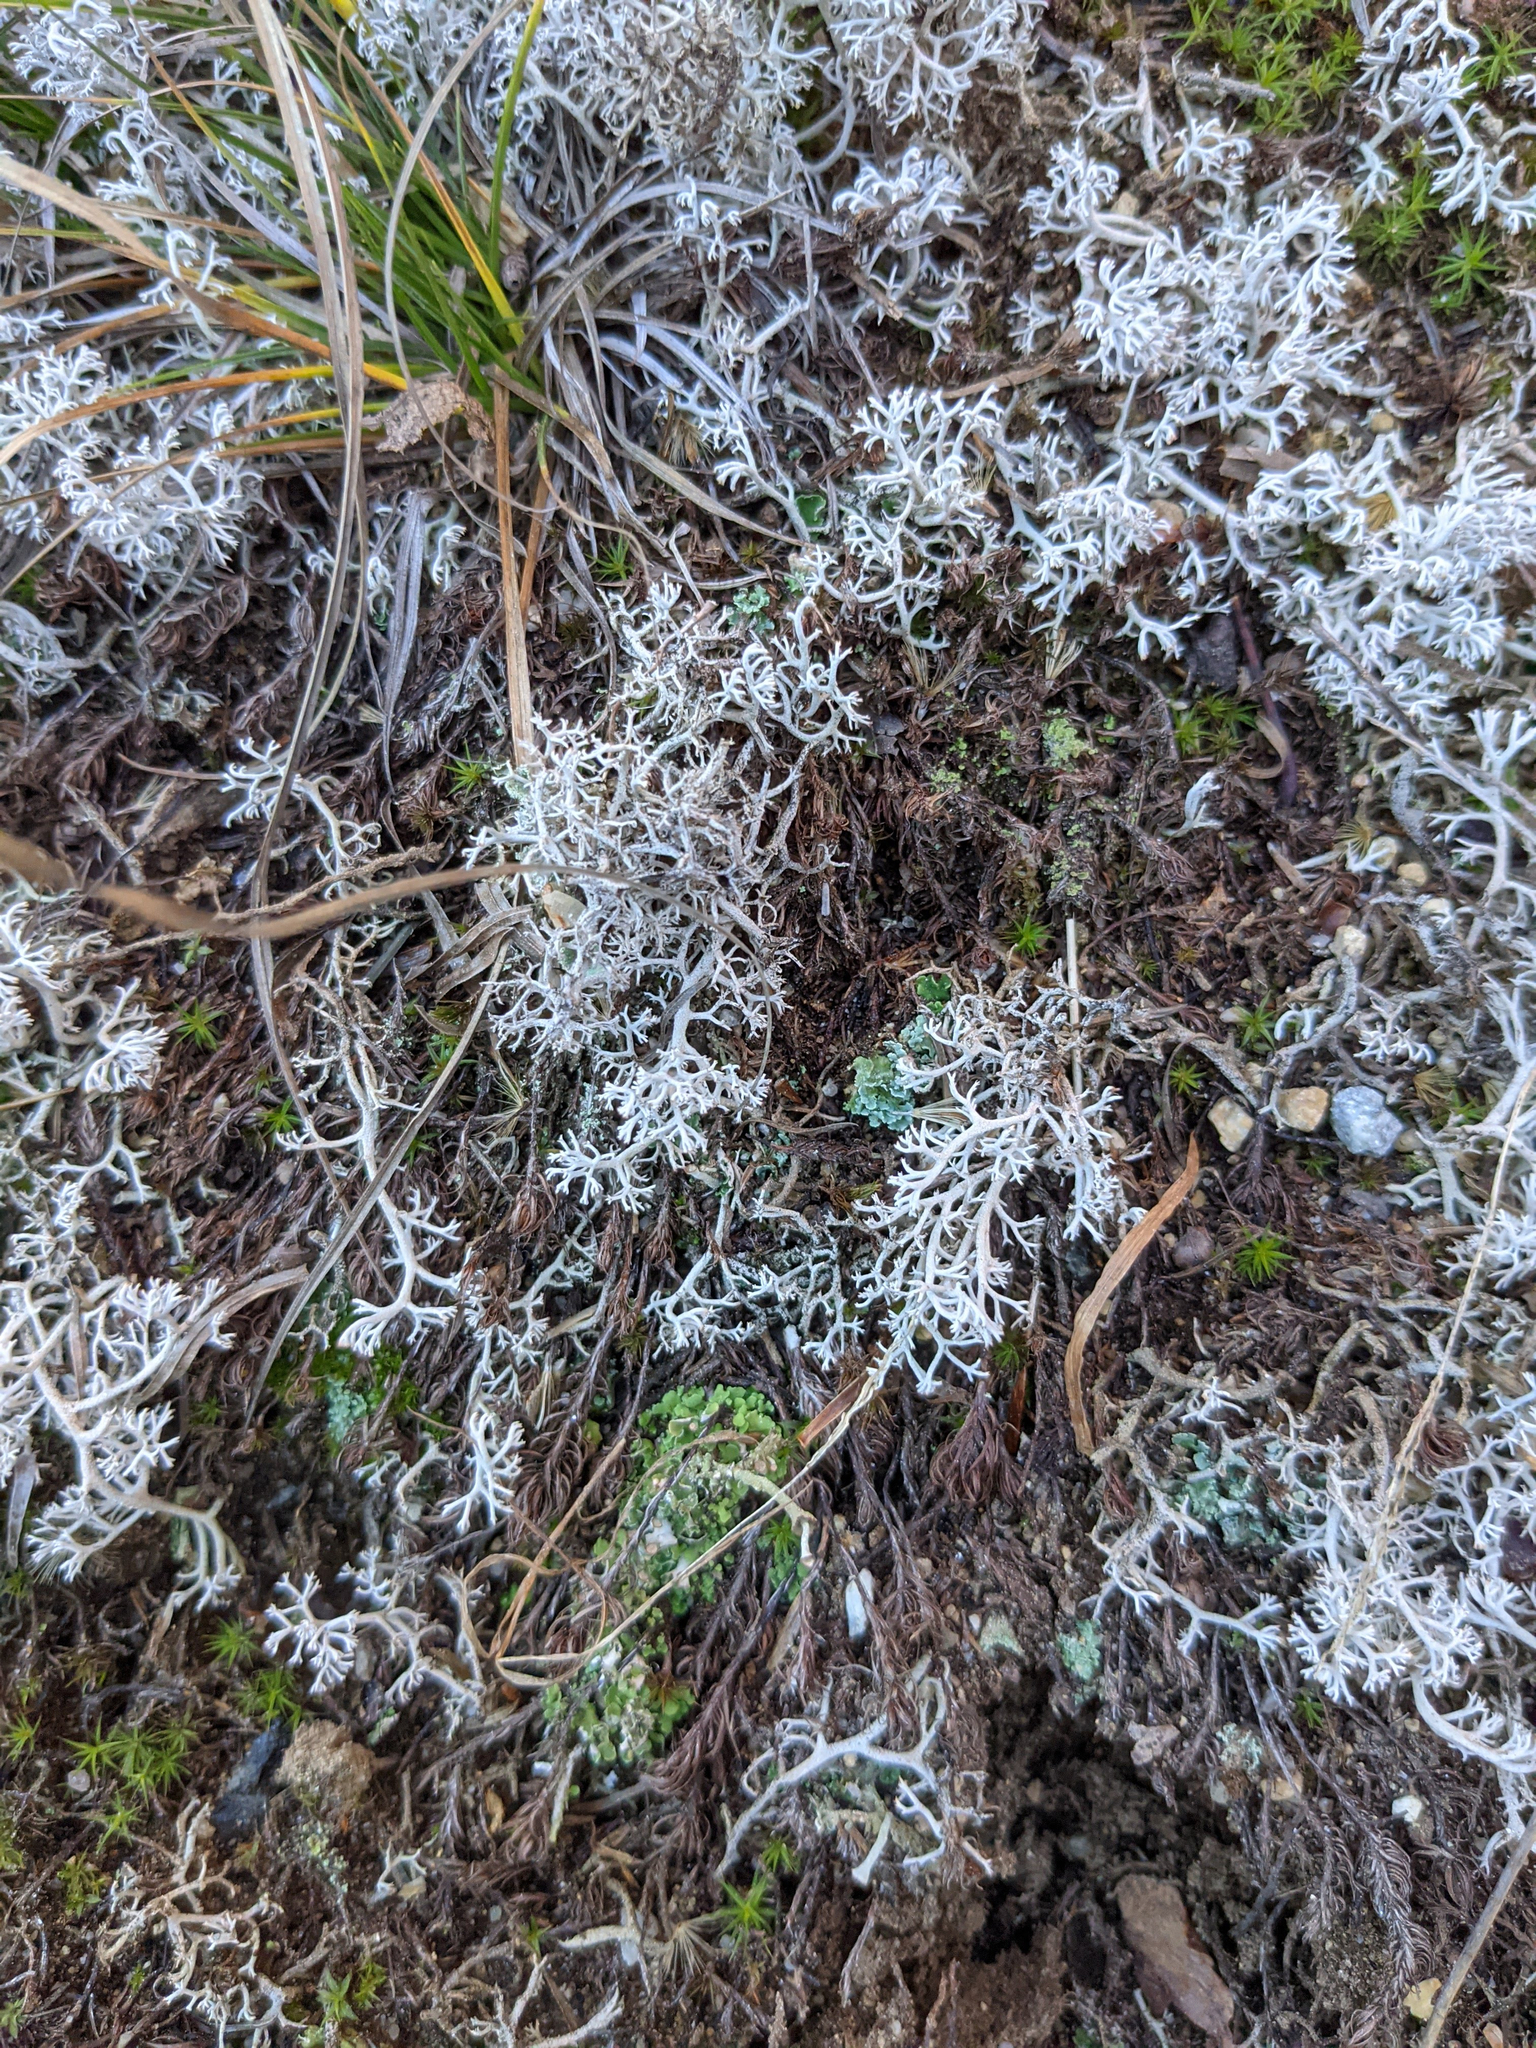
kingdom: Fungi
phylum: Ascomycota
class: Lecanoromycetes
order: Lecanorales
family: Cladoniaceae
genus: Cladonia
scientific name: Cladonia rangiferina
